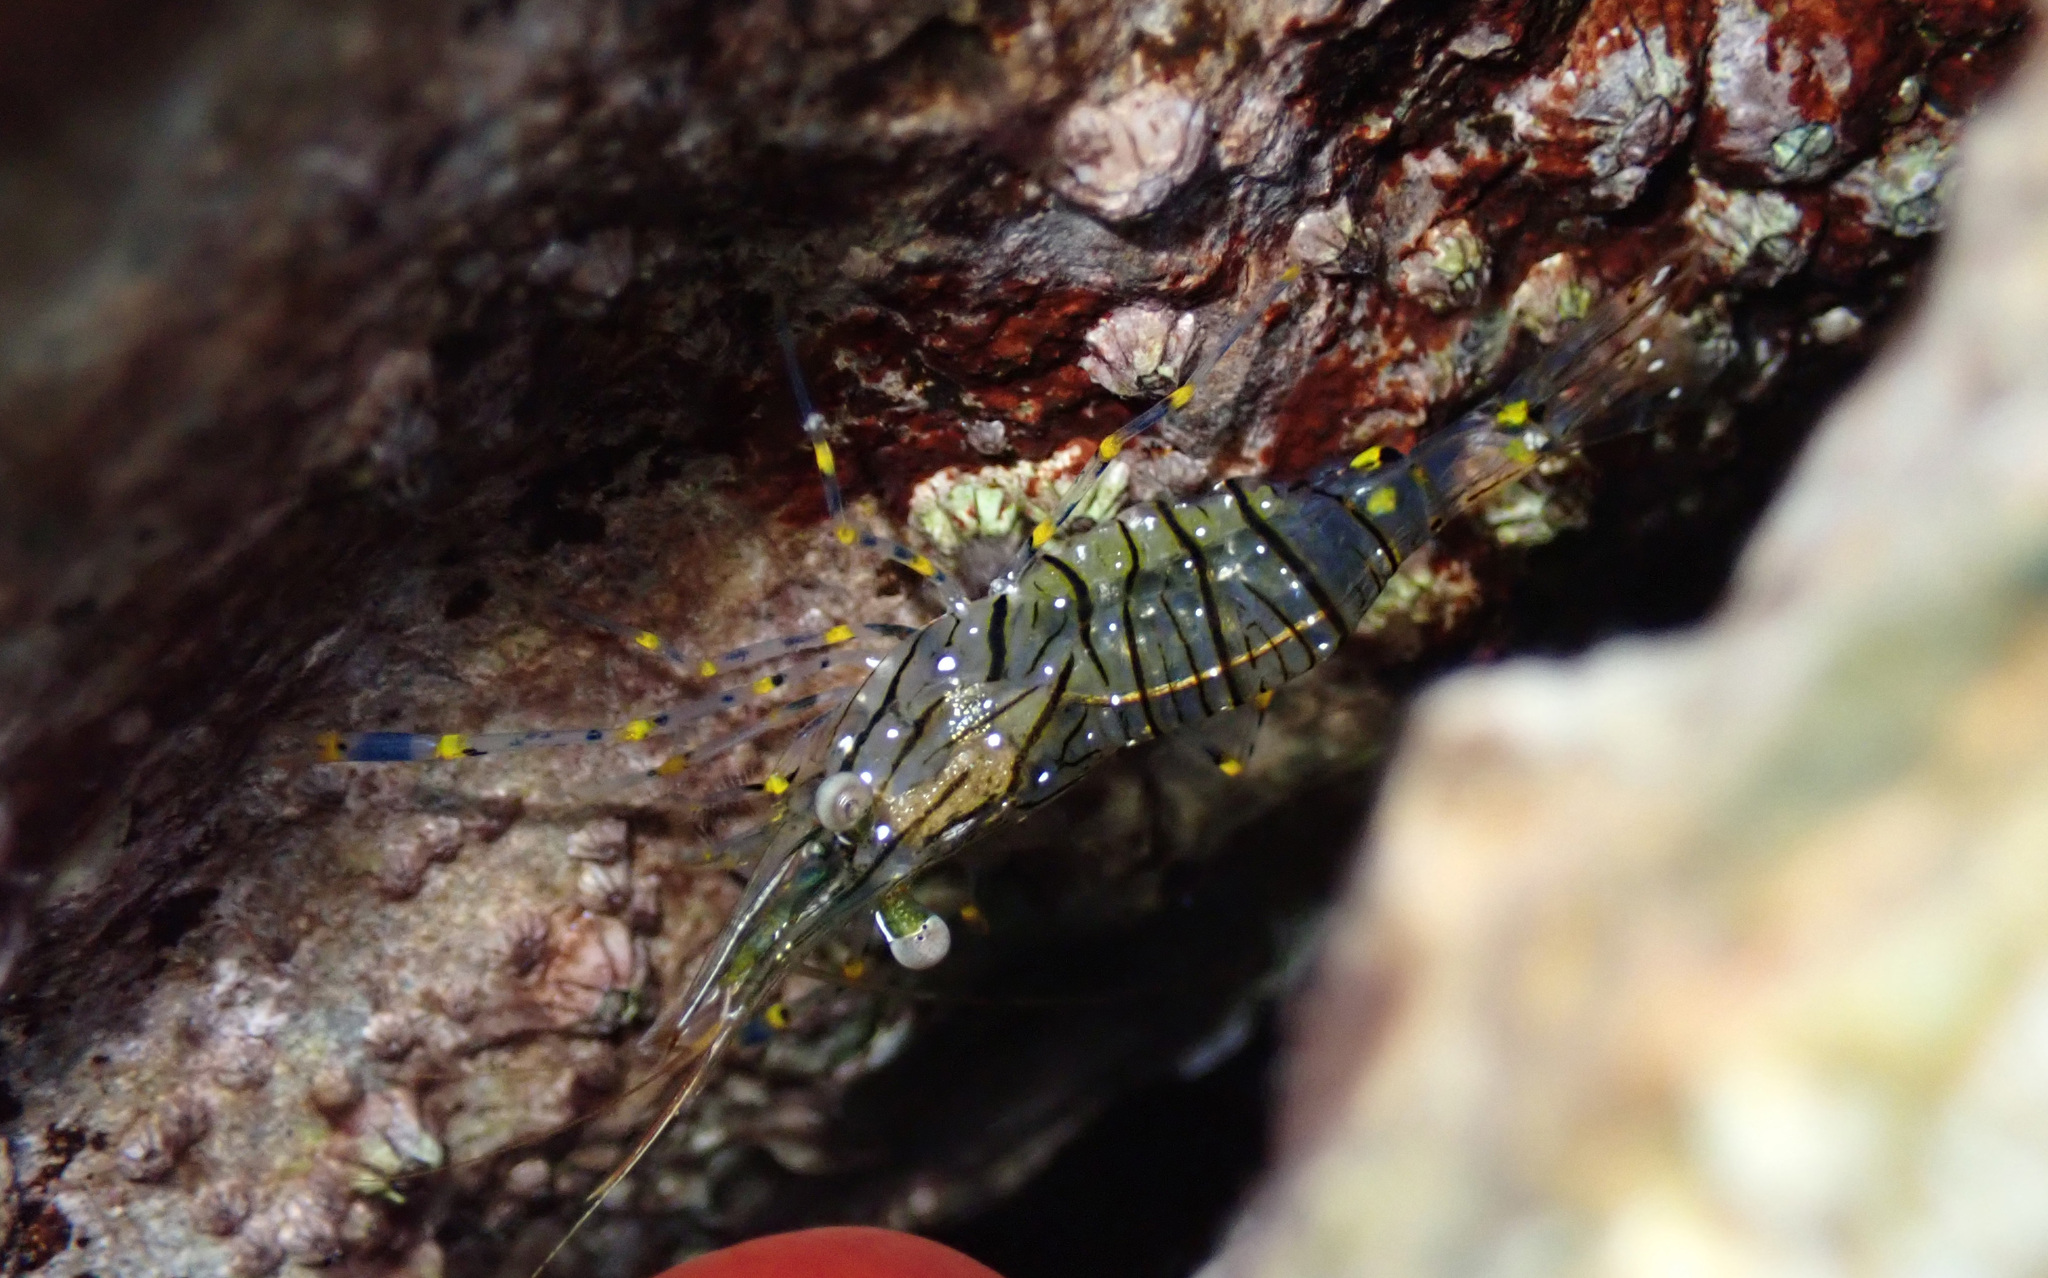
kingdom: Animalia
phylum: Arthropoda
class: Malacostraca
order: Decapoda
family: Palaemonidae
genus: Palaemon
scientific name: Palaemon elegans
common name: Grass prawm
